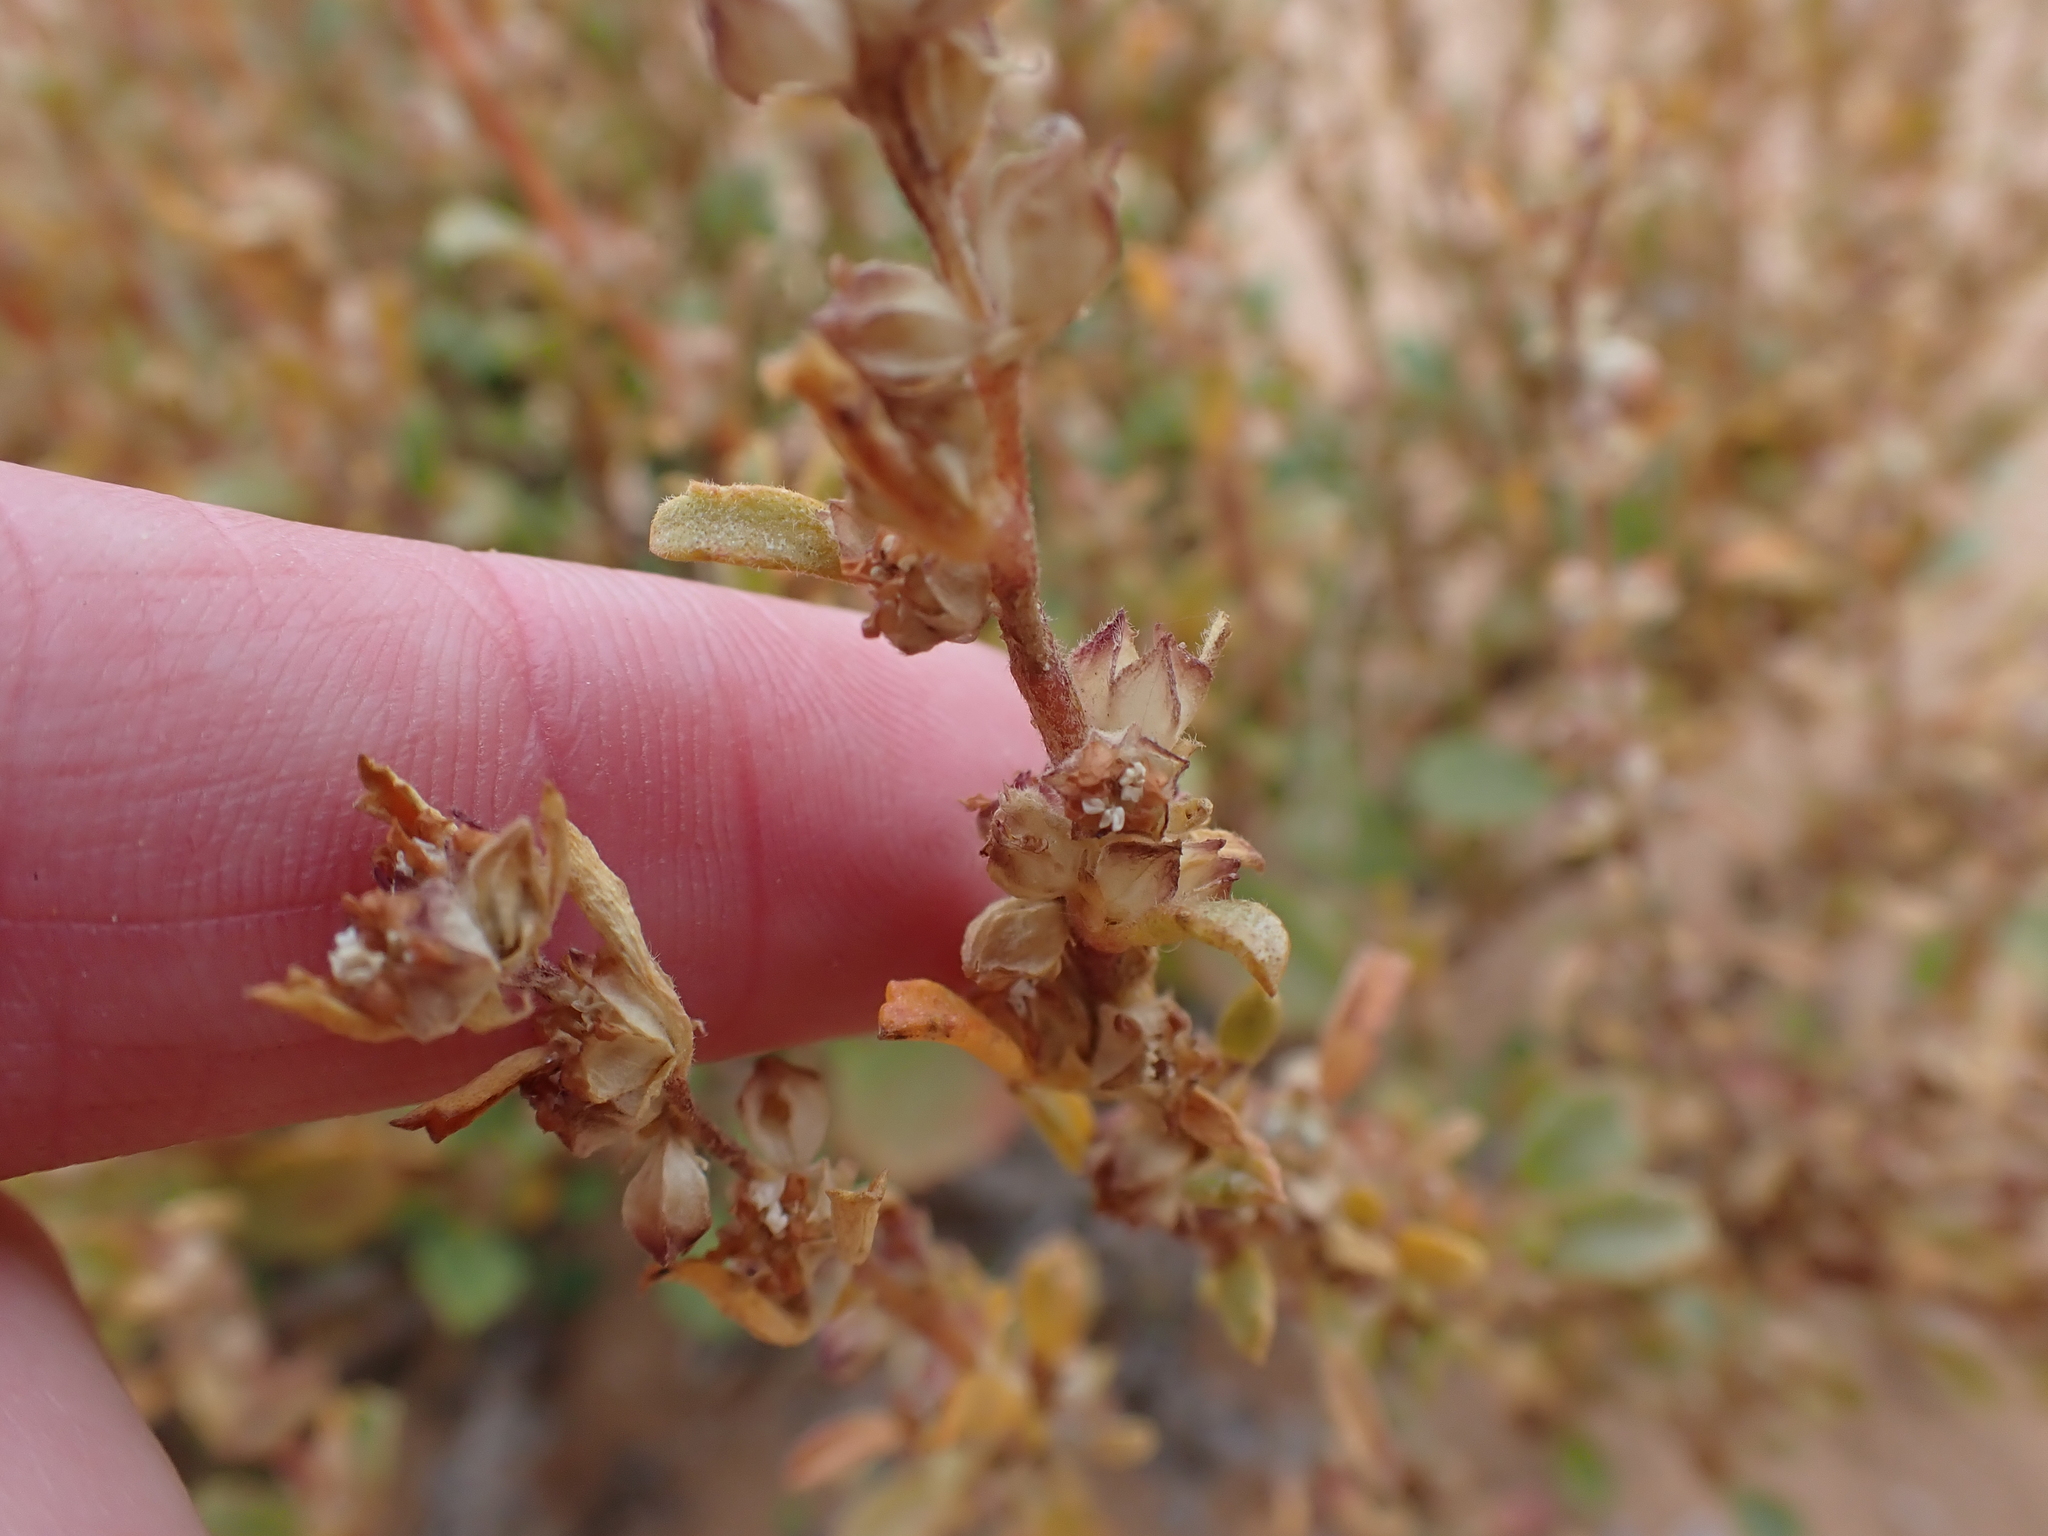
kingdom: Plantae
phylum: Tracheophyta
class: Magnoliopsida
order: Malvales
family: Malvaceae
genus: Lawrencia
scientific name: Lawrencia glomerata
